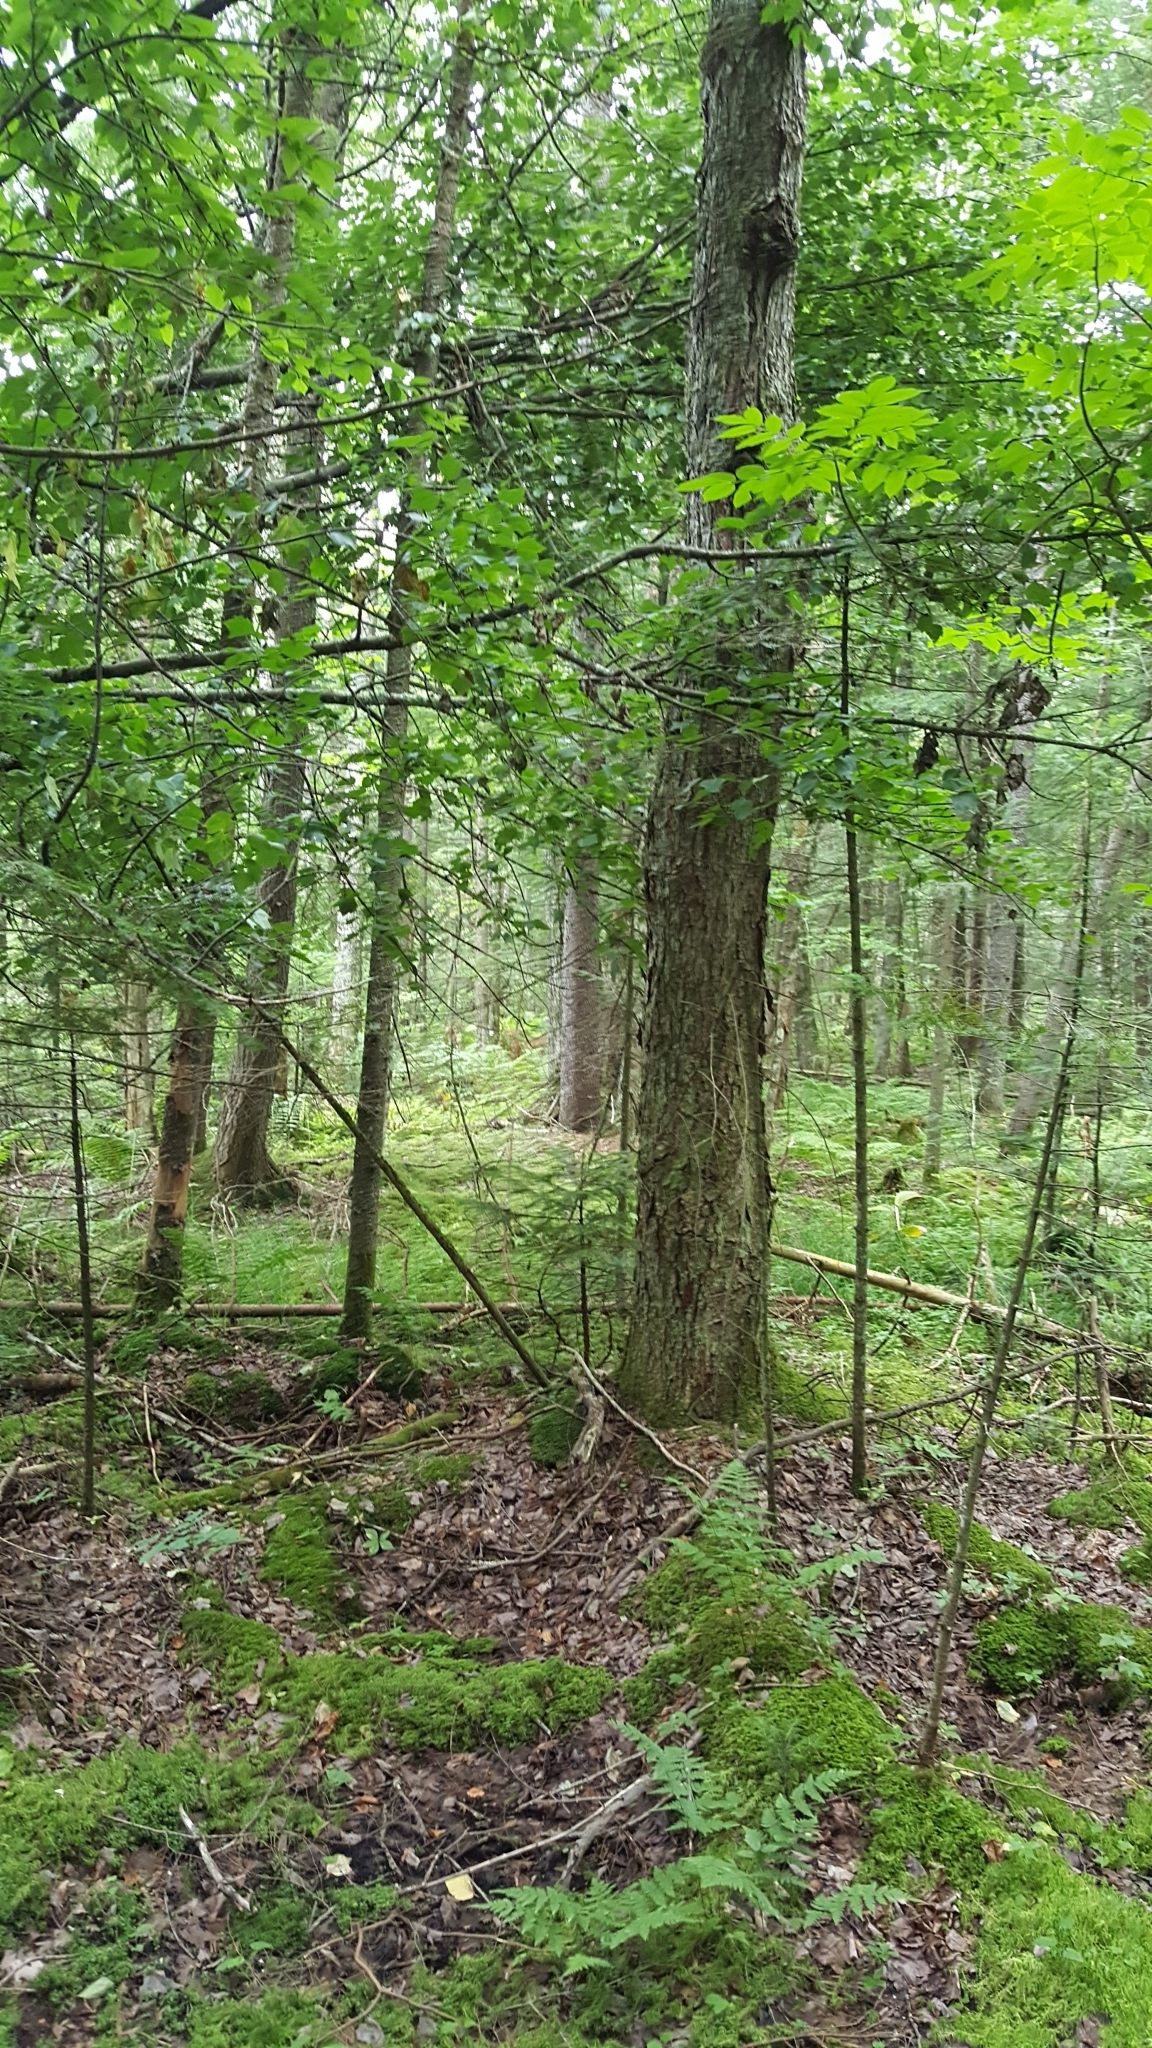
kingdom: Plantae
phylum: Tracheophyta
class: Magnoliopsida
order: Sapindales
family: Sapindaceae
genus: Acer
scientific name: Acer rubrum
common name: Red maple
